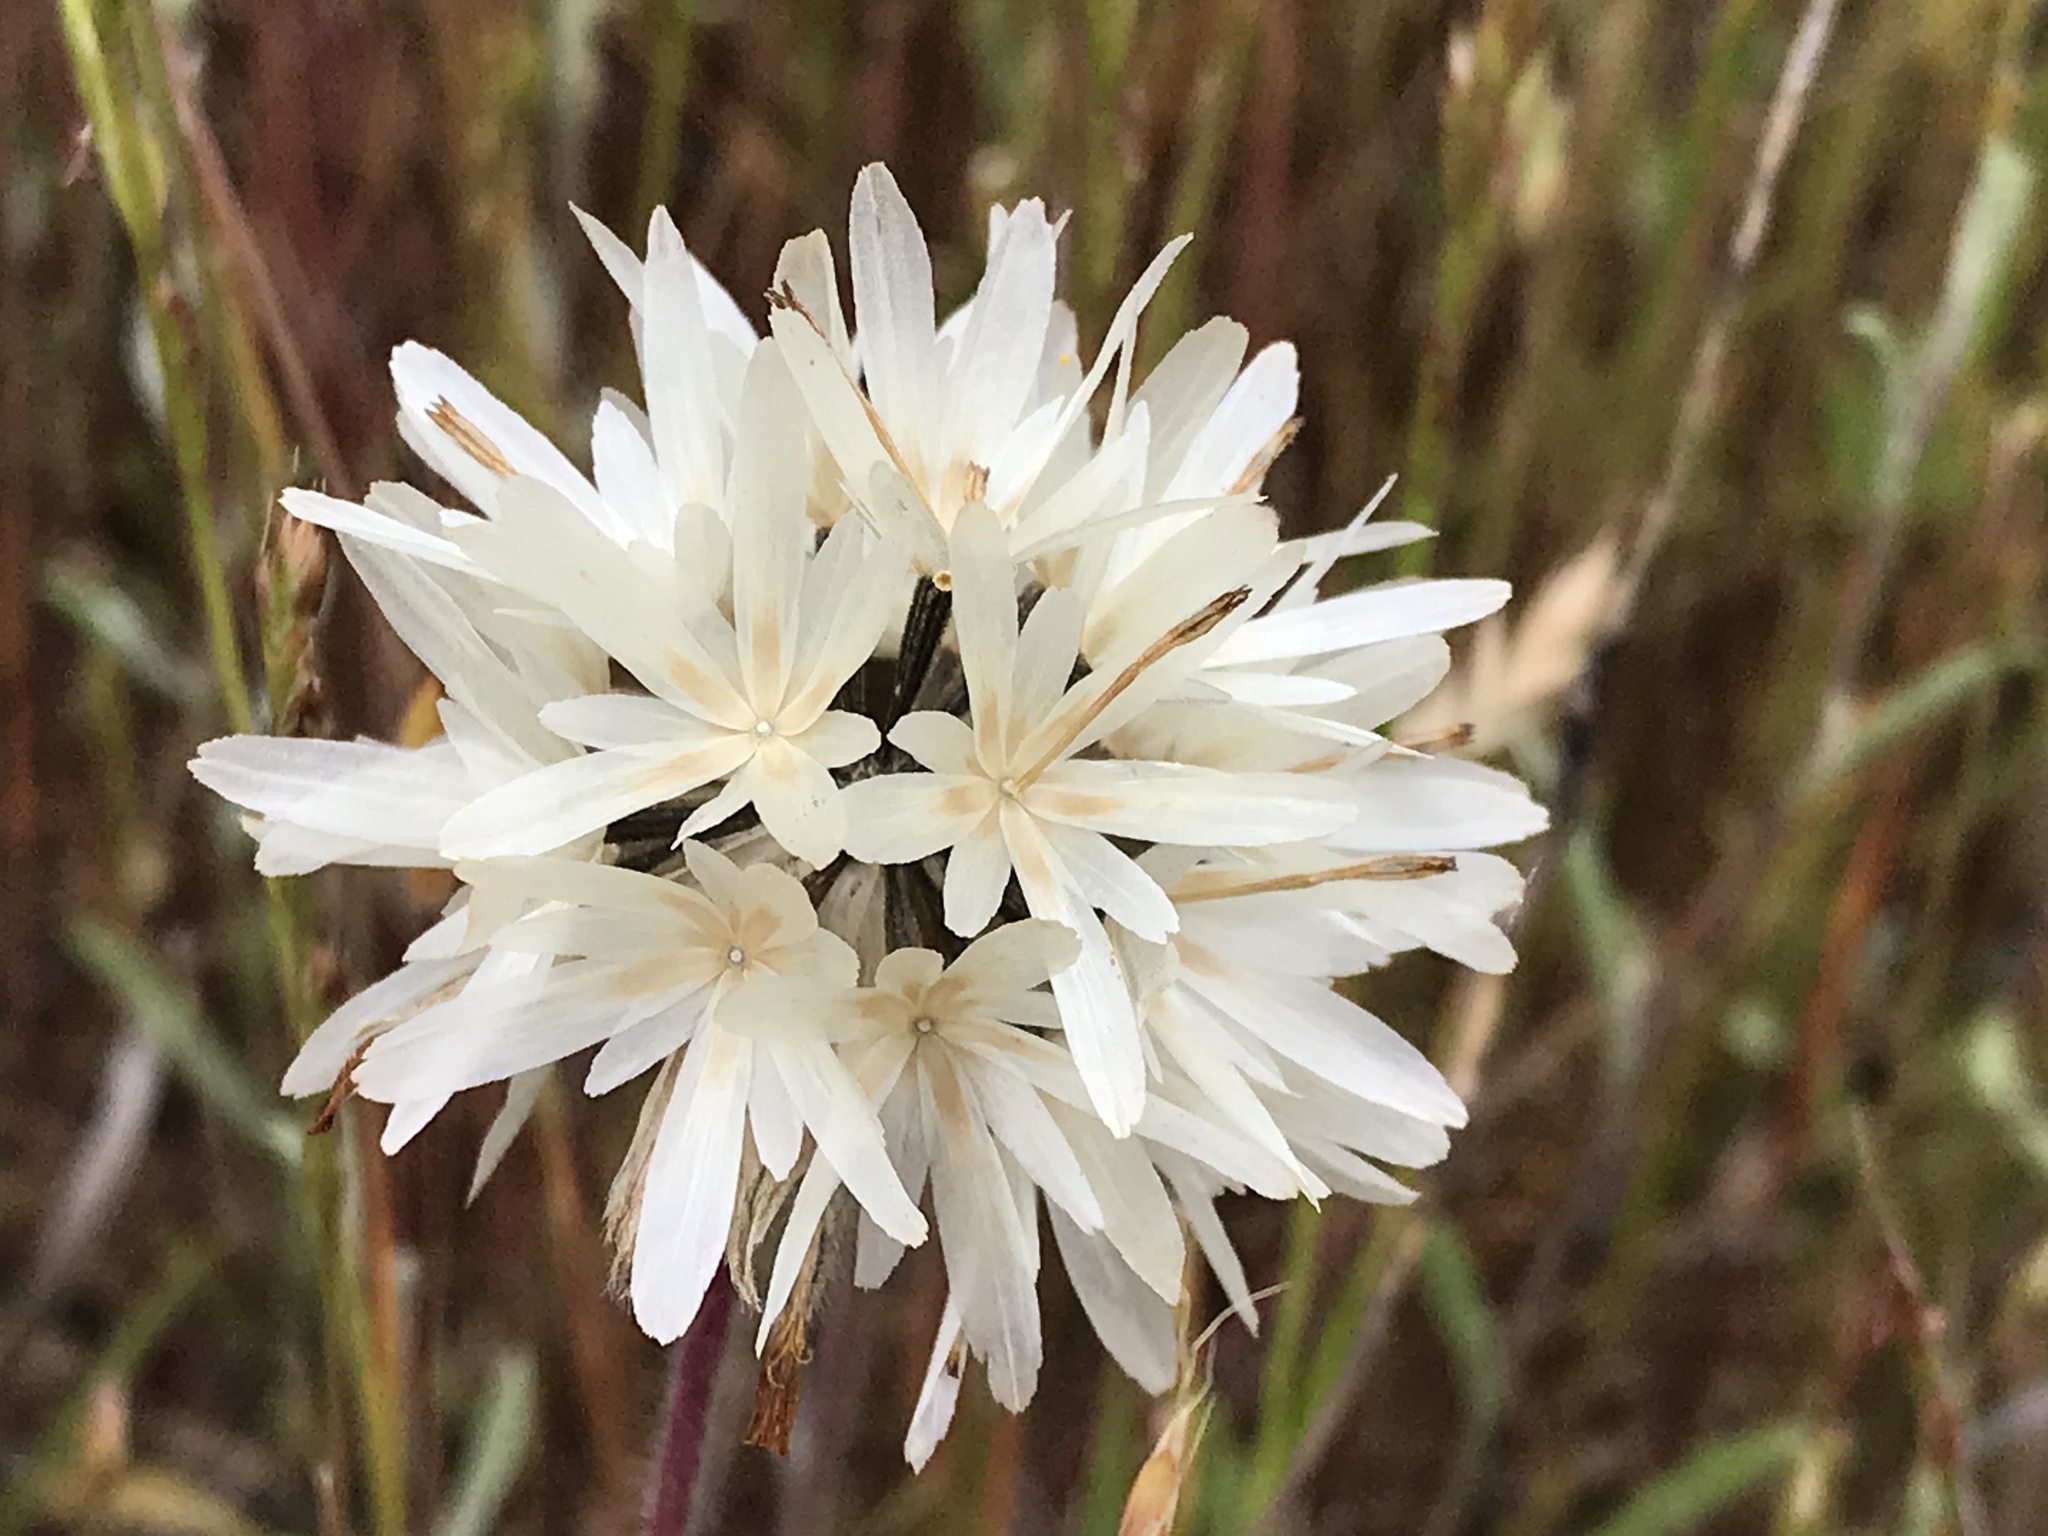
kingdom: Plantae
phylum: Tracheophyta
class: Magnoliopsida
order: Asterales
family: Asteraceae
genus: Achyrachaena
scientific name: Achyrachaena mollis
